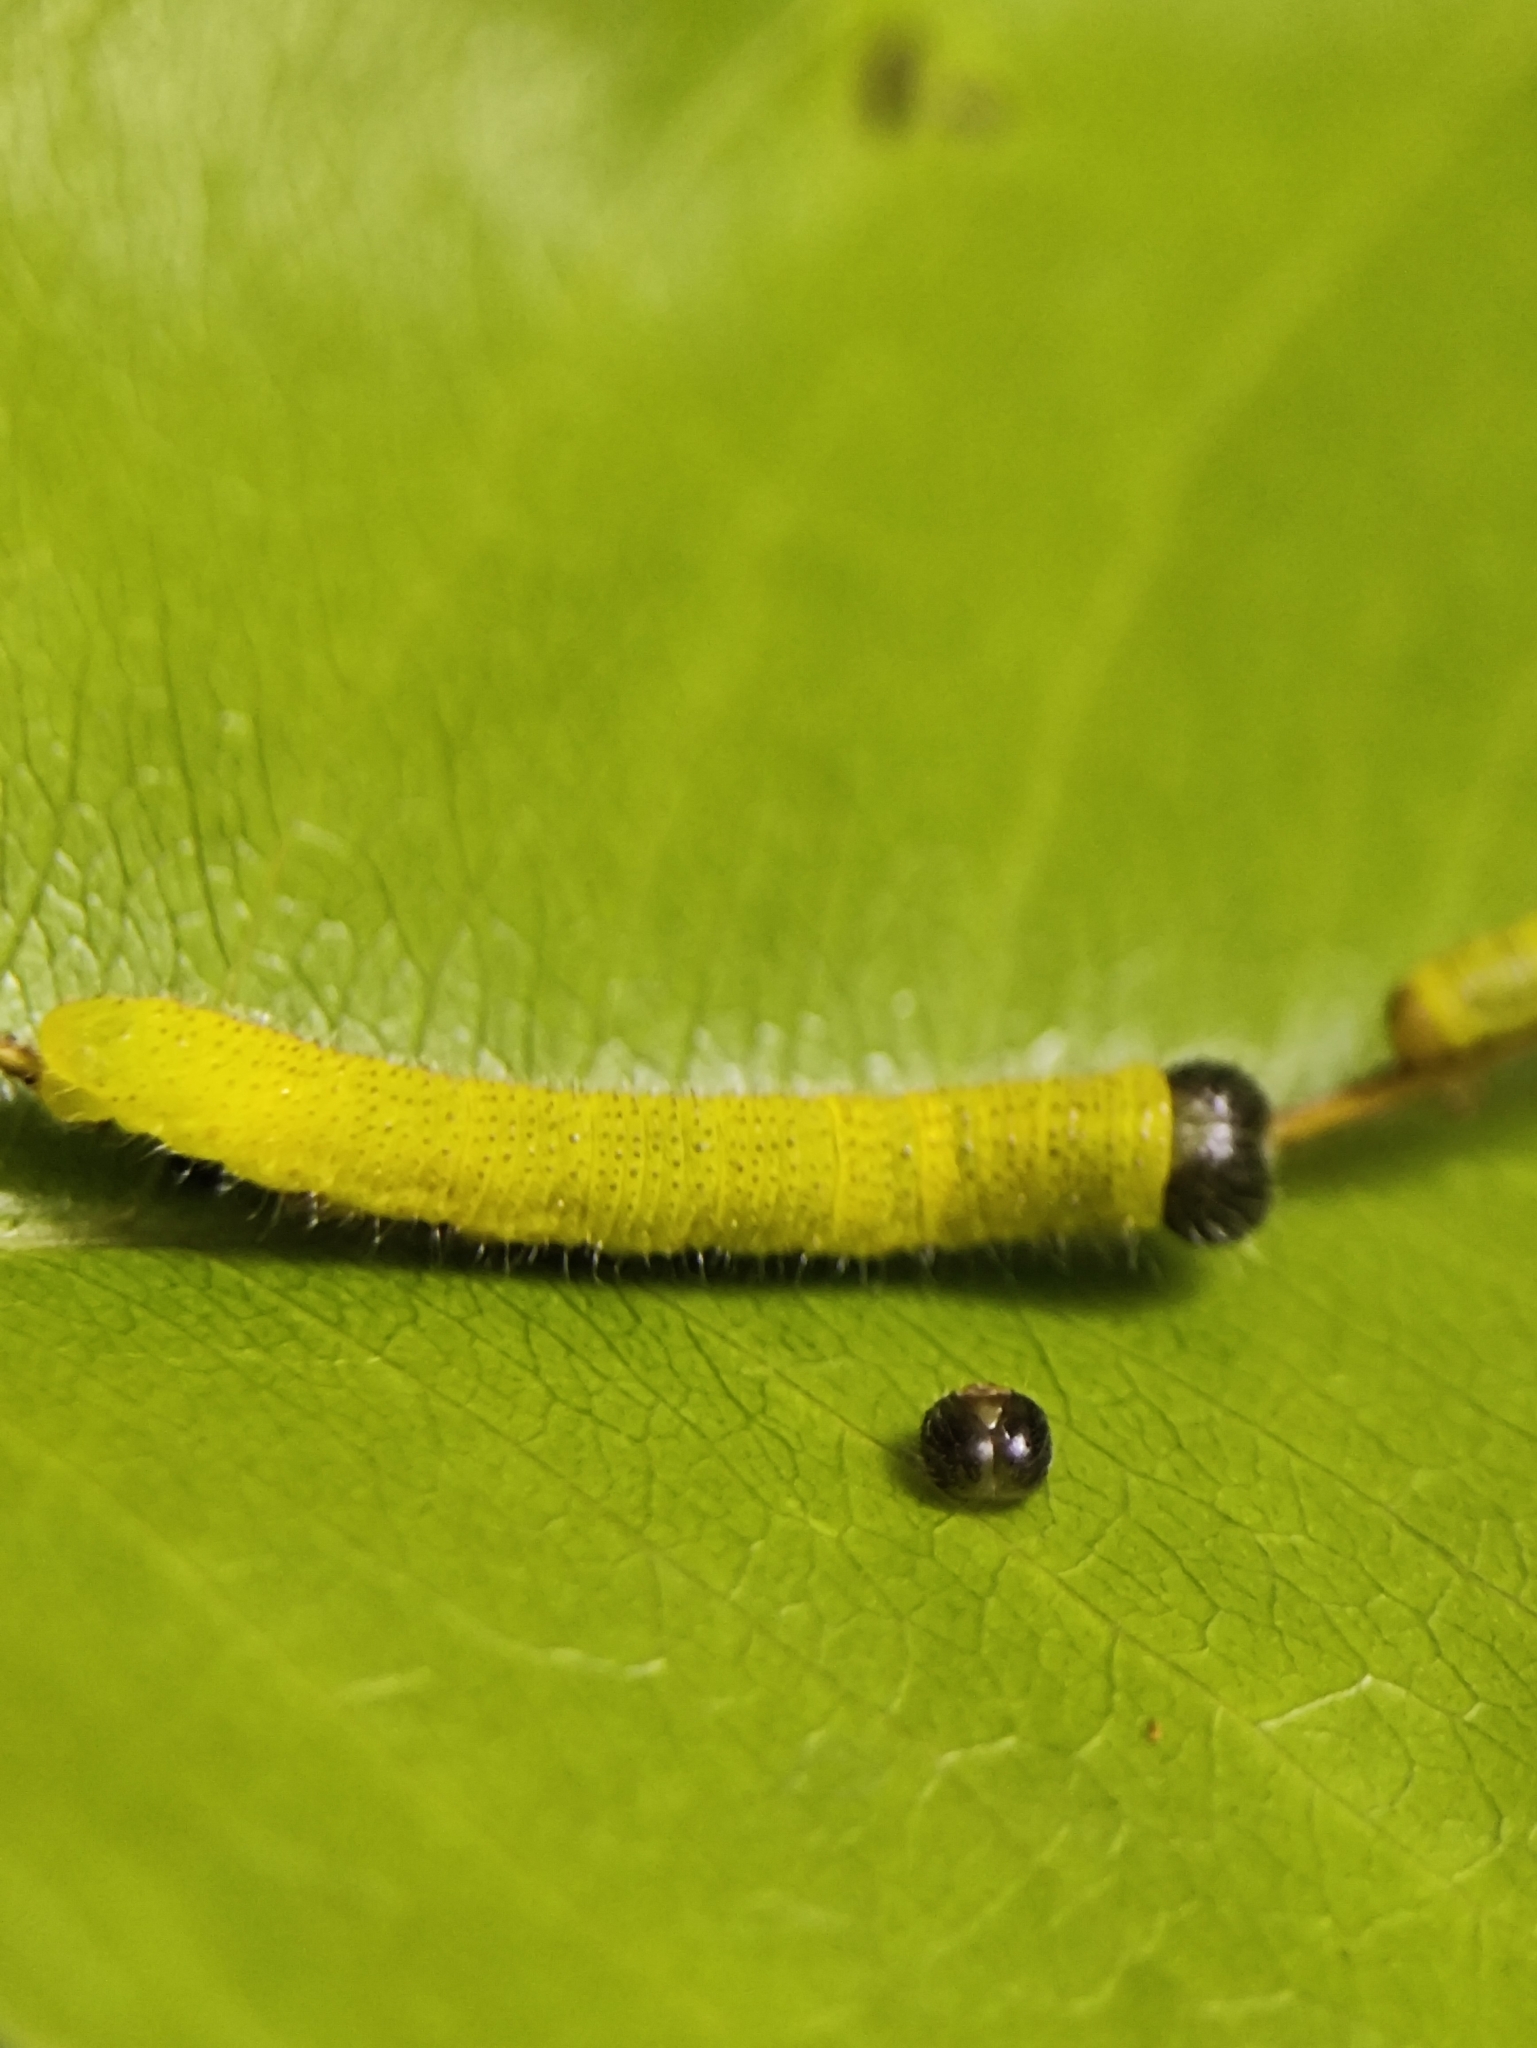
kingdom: Animalia
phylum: Arthropoda
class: Insecta
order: Lepidoptera
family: Pieridae
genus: Eurema
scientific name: Eurema blanda
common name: Three-spot grass yellow
